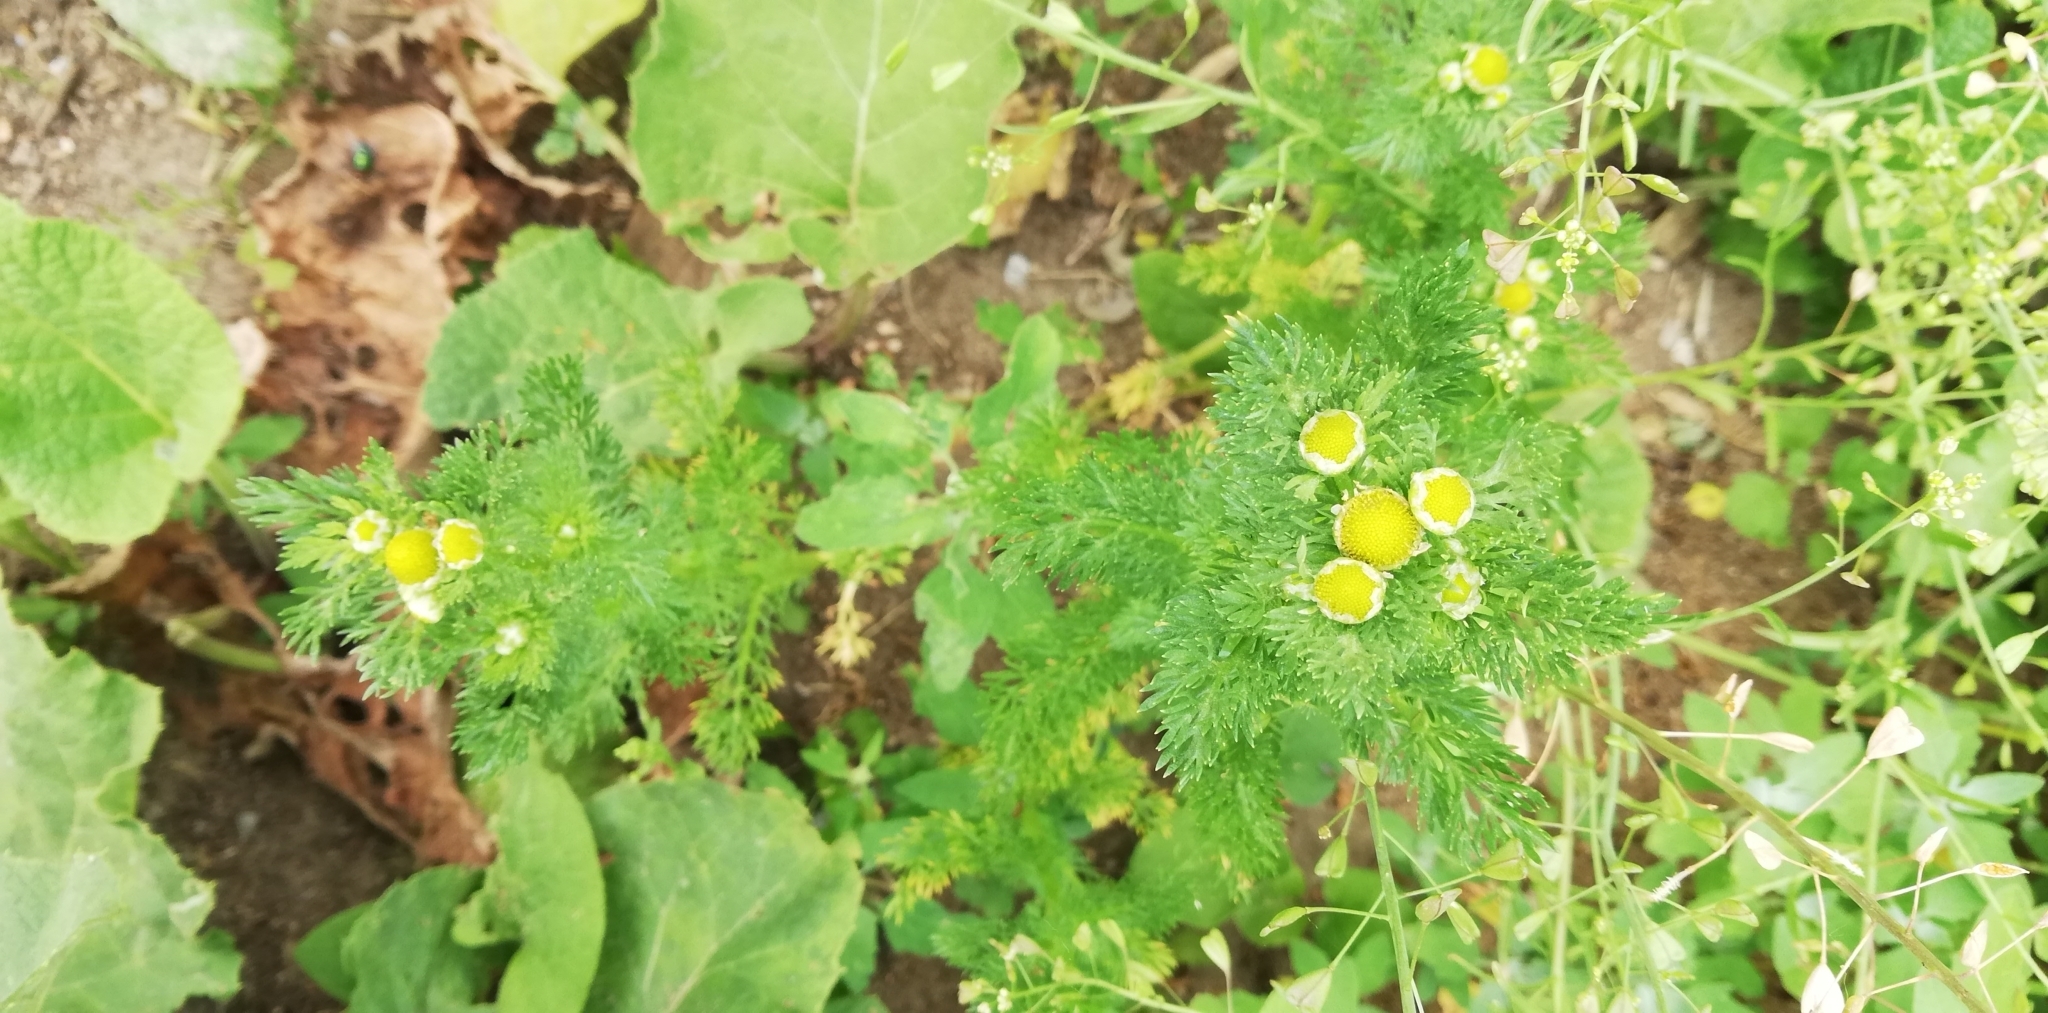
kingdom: Plantae
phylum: Tracheophyta
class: Magnoliopsida
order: Asterales
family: Asteraceae
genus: Matricaria
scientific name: Matricaria discoidea
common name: Disc mayweed
